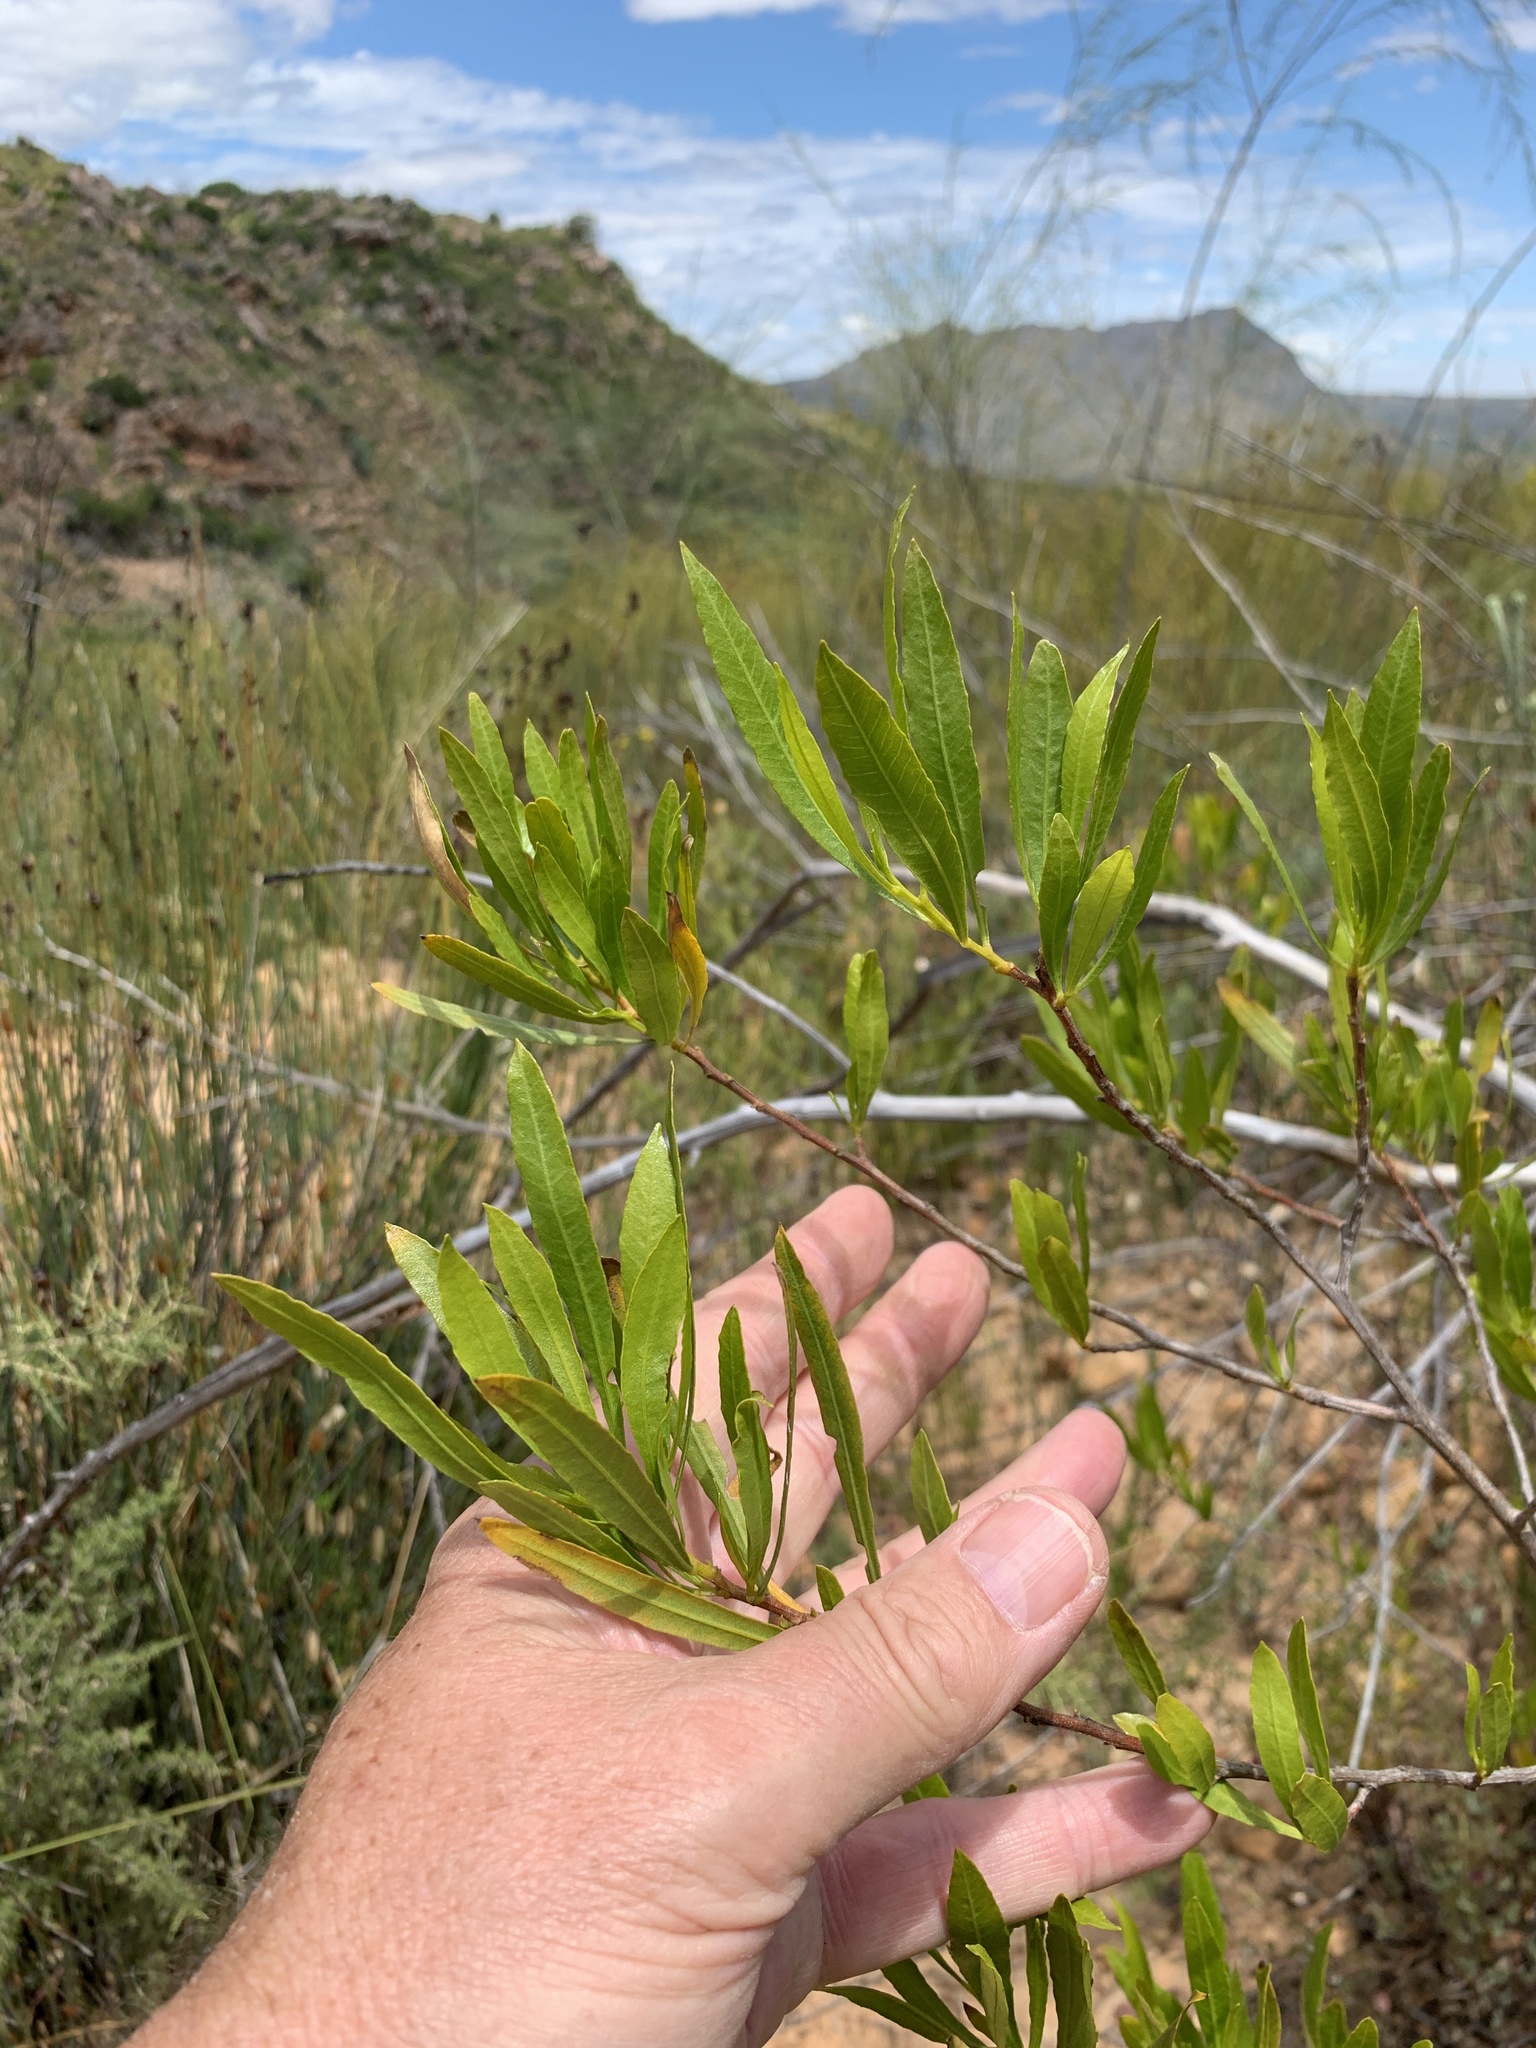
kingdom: Plantae
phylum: Tracheophyta
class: Magnoliopsida
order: Sapindales
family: Sapindaceae
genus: Dodonaea
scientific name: Dodonaea viscosa
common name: Hopbush
